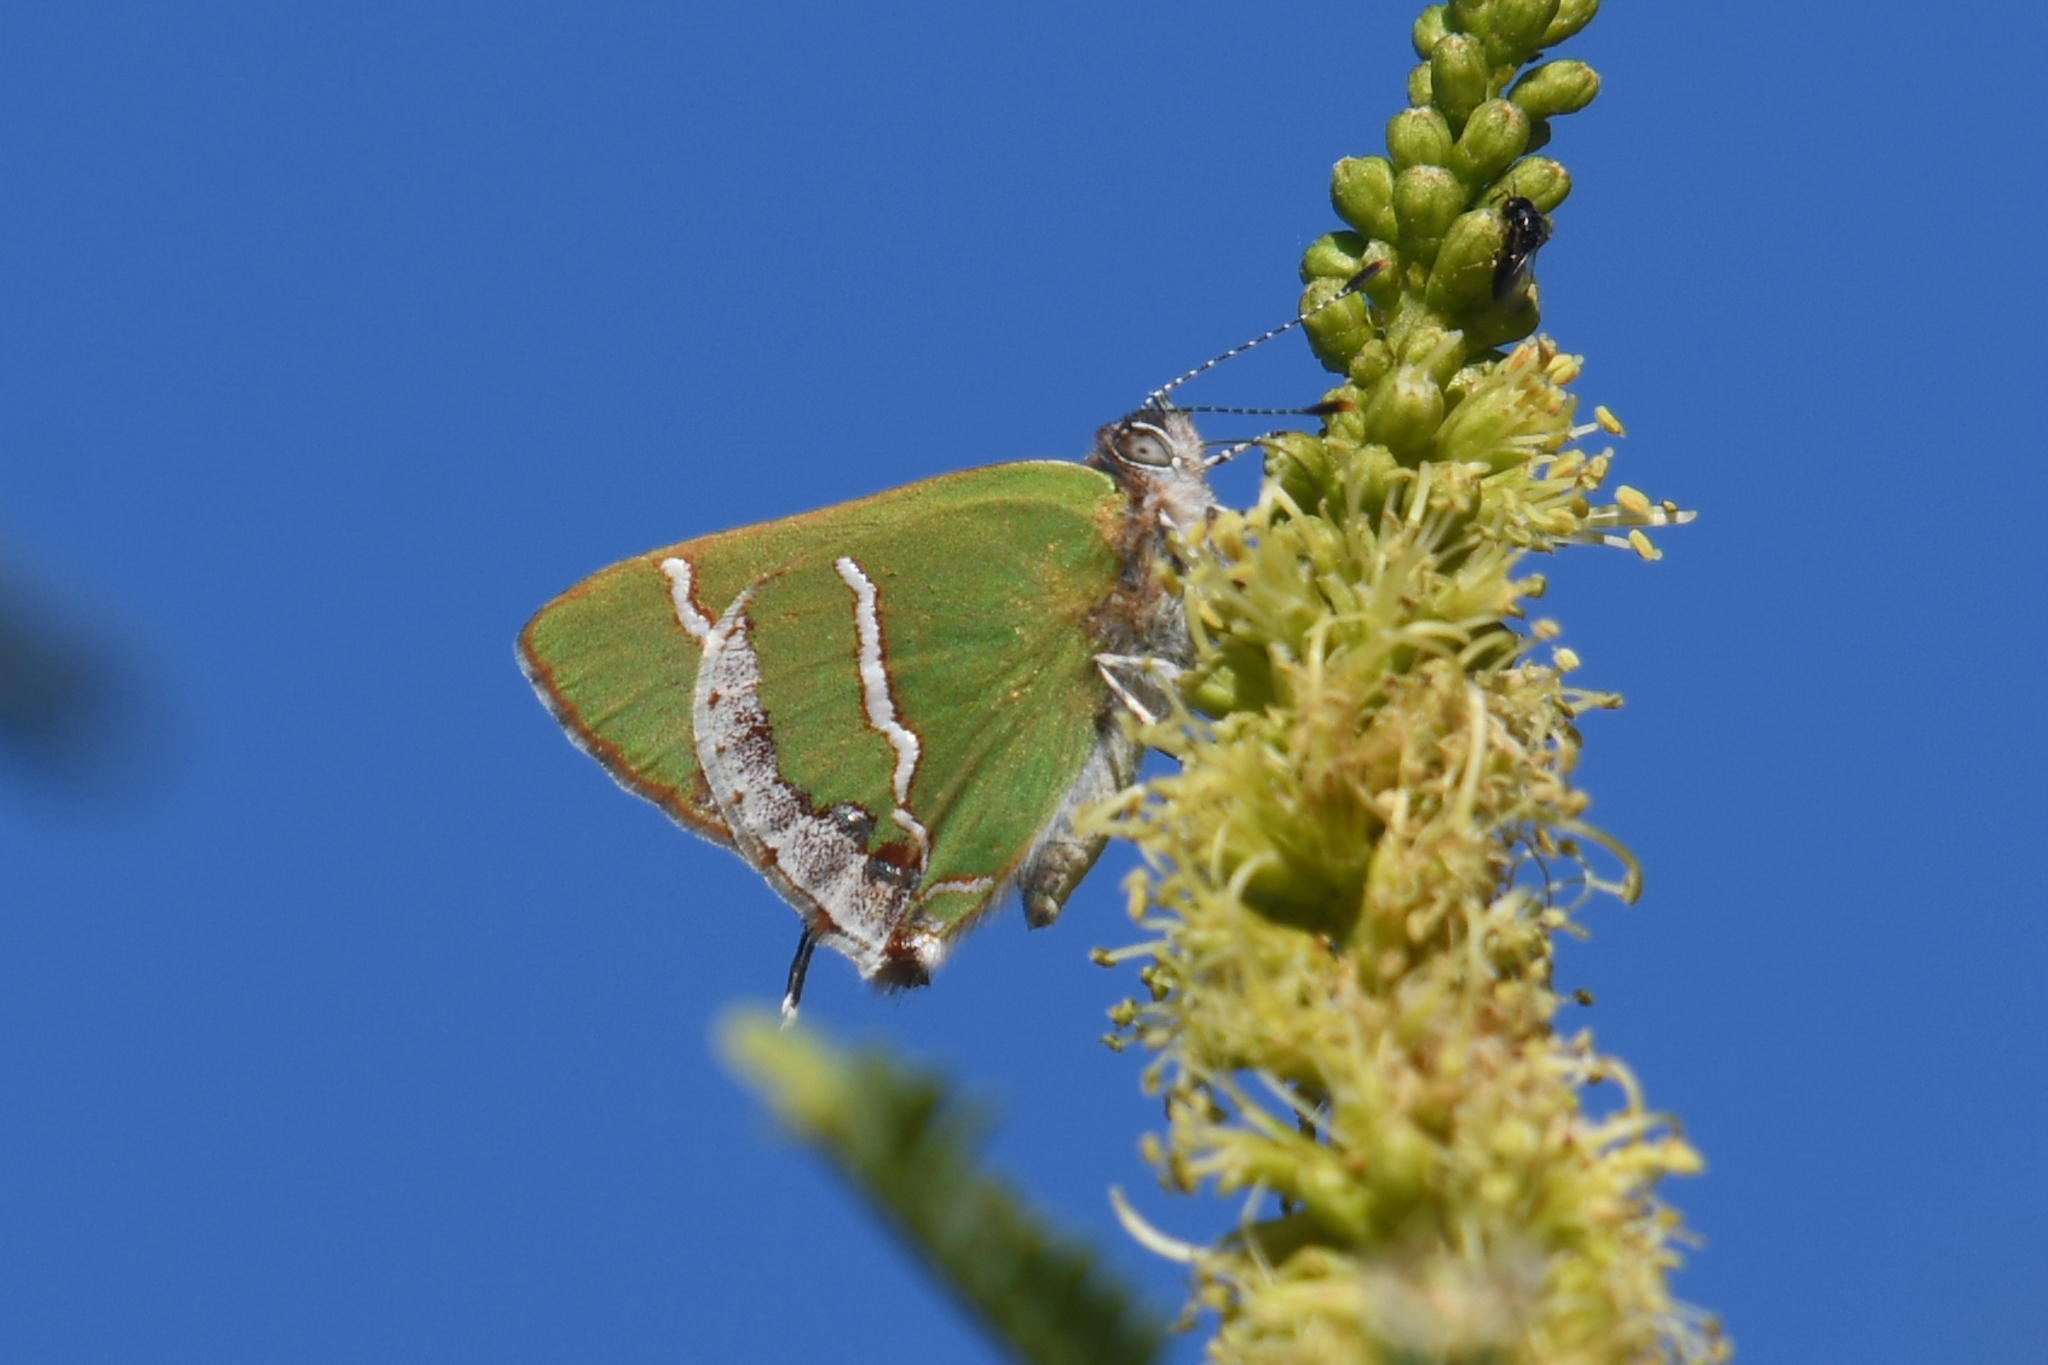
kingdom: Animalia
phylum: Arthropoda
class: Insecta
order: Lepidoptera
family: Lycaenidae
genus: Chlorostrymon
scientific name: Chlorostrymon simaethis
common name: Silver-banded hairstreak
